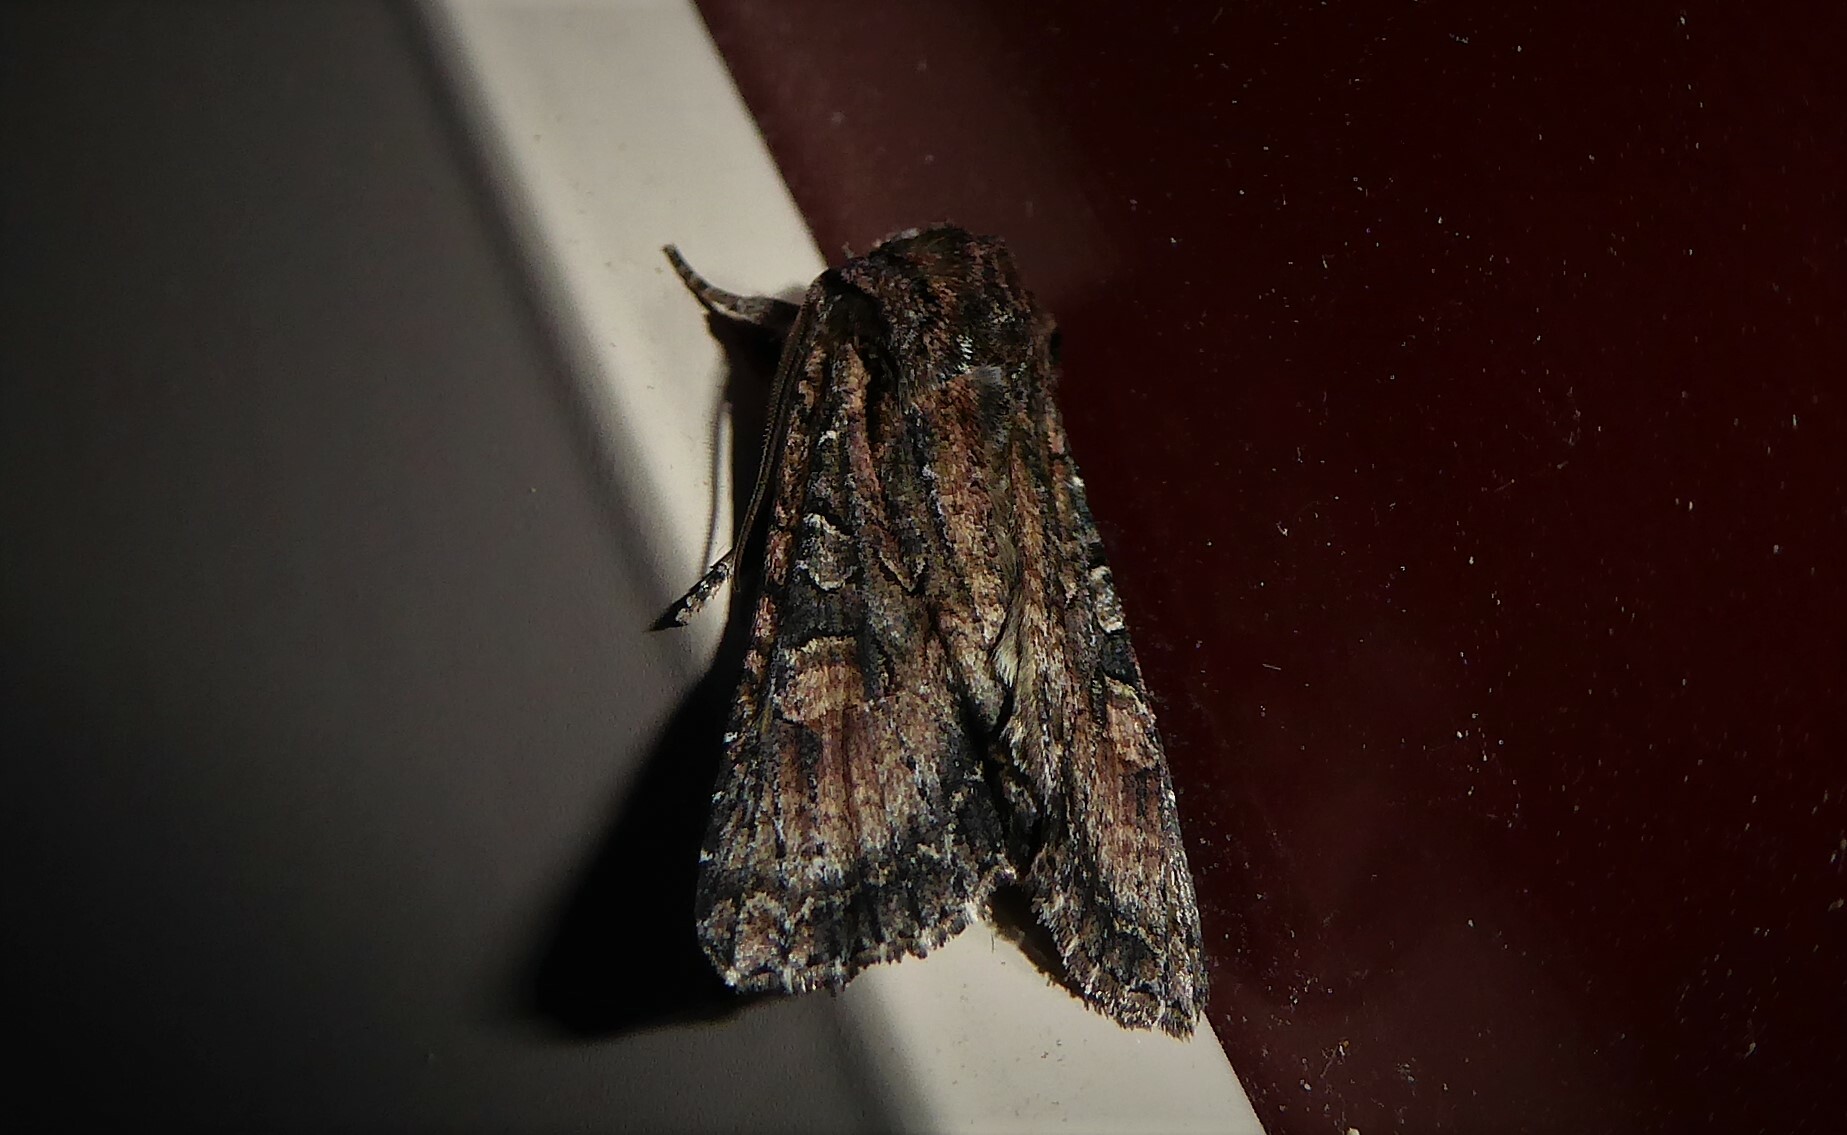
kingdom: Animalia
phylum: Arthropoda
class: Insecta
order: Lepidoptera
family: Noctuidae
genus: Ichneutica
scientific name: Ichneutica mutans
